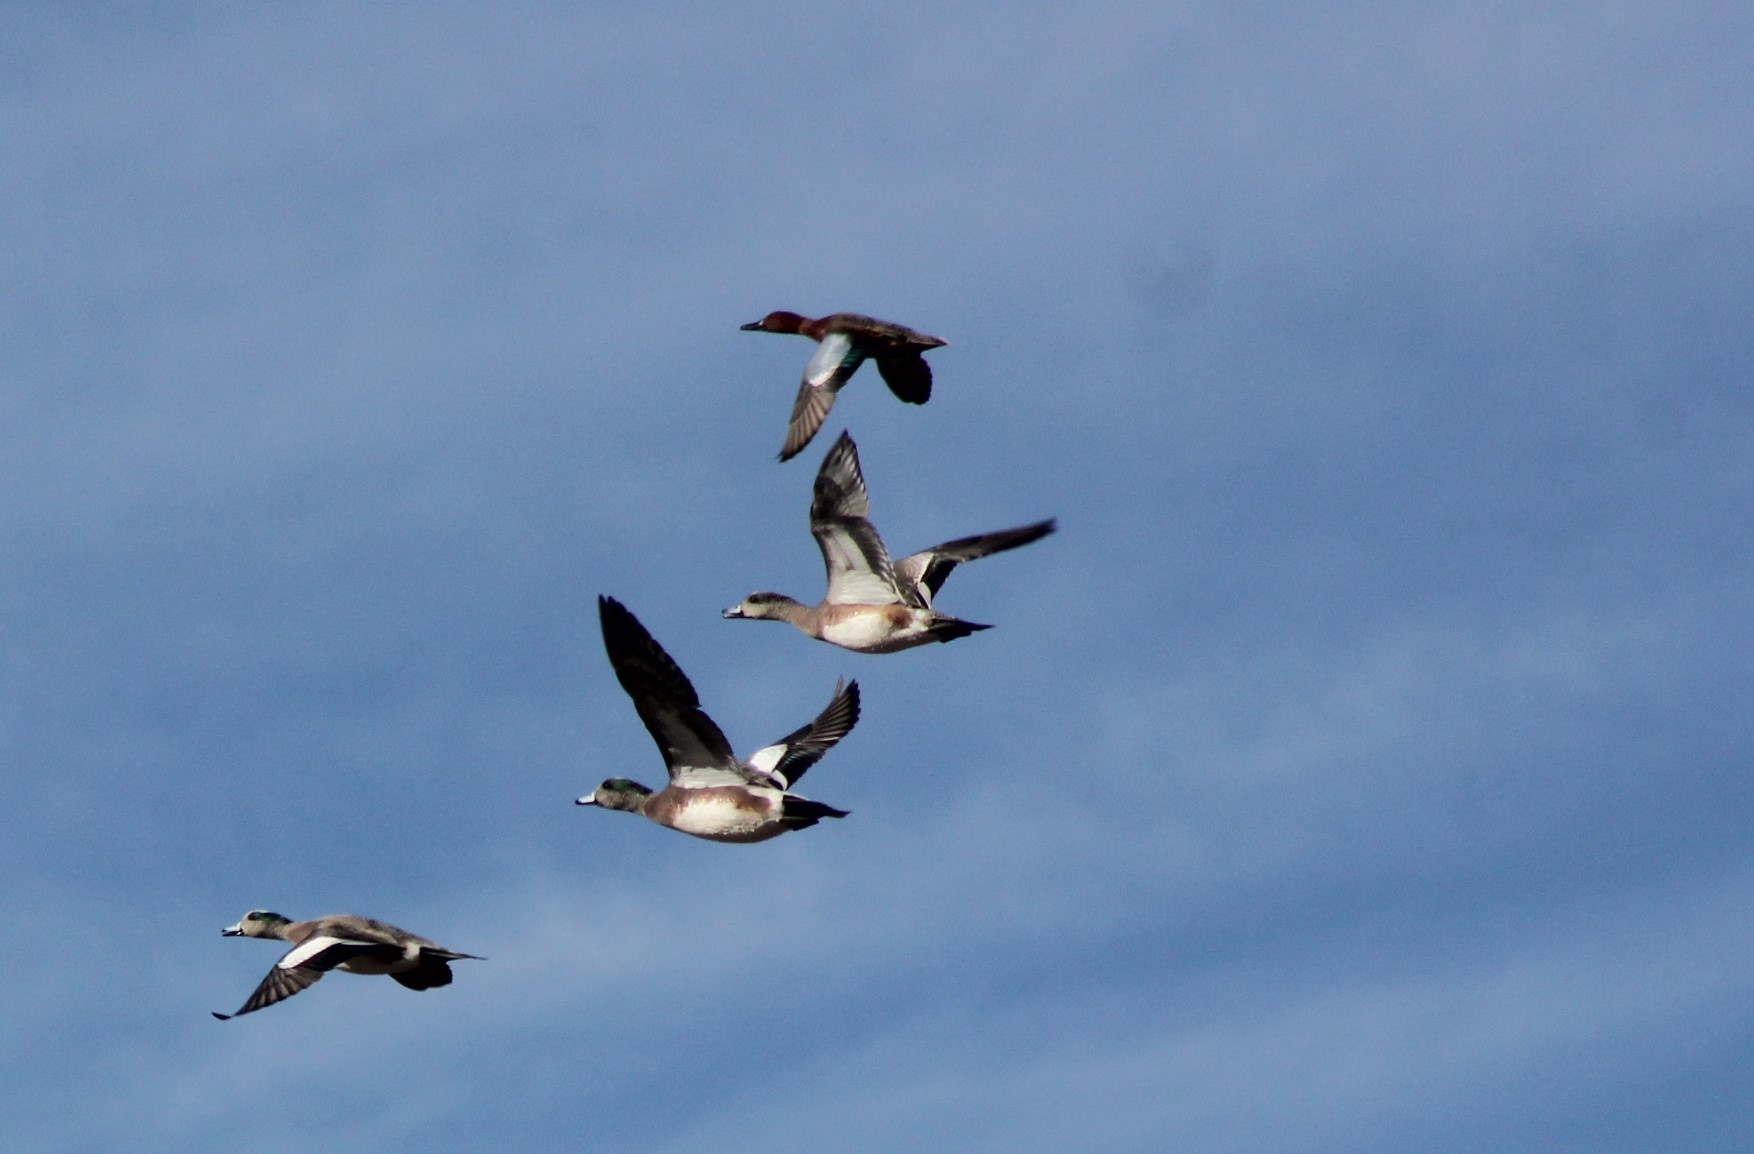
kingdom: Animalia
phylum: Chordata
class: Aves
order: Anseriformes
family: Anatidae
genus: Mareca
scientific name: Mareca americana
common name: American wigeon
